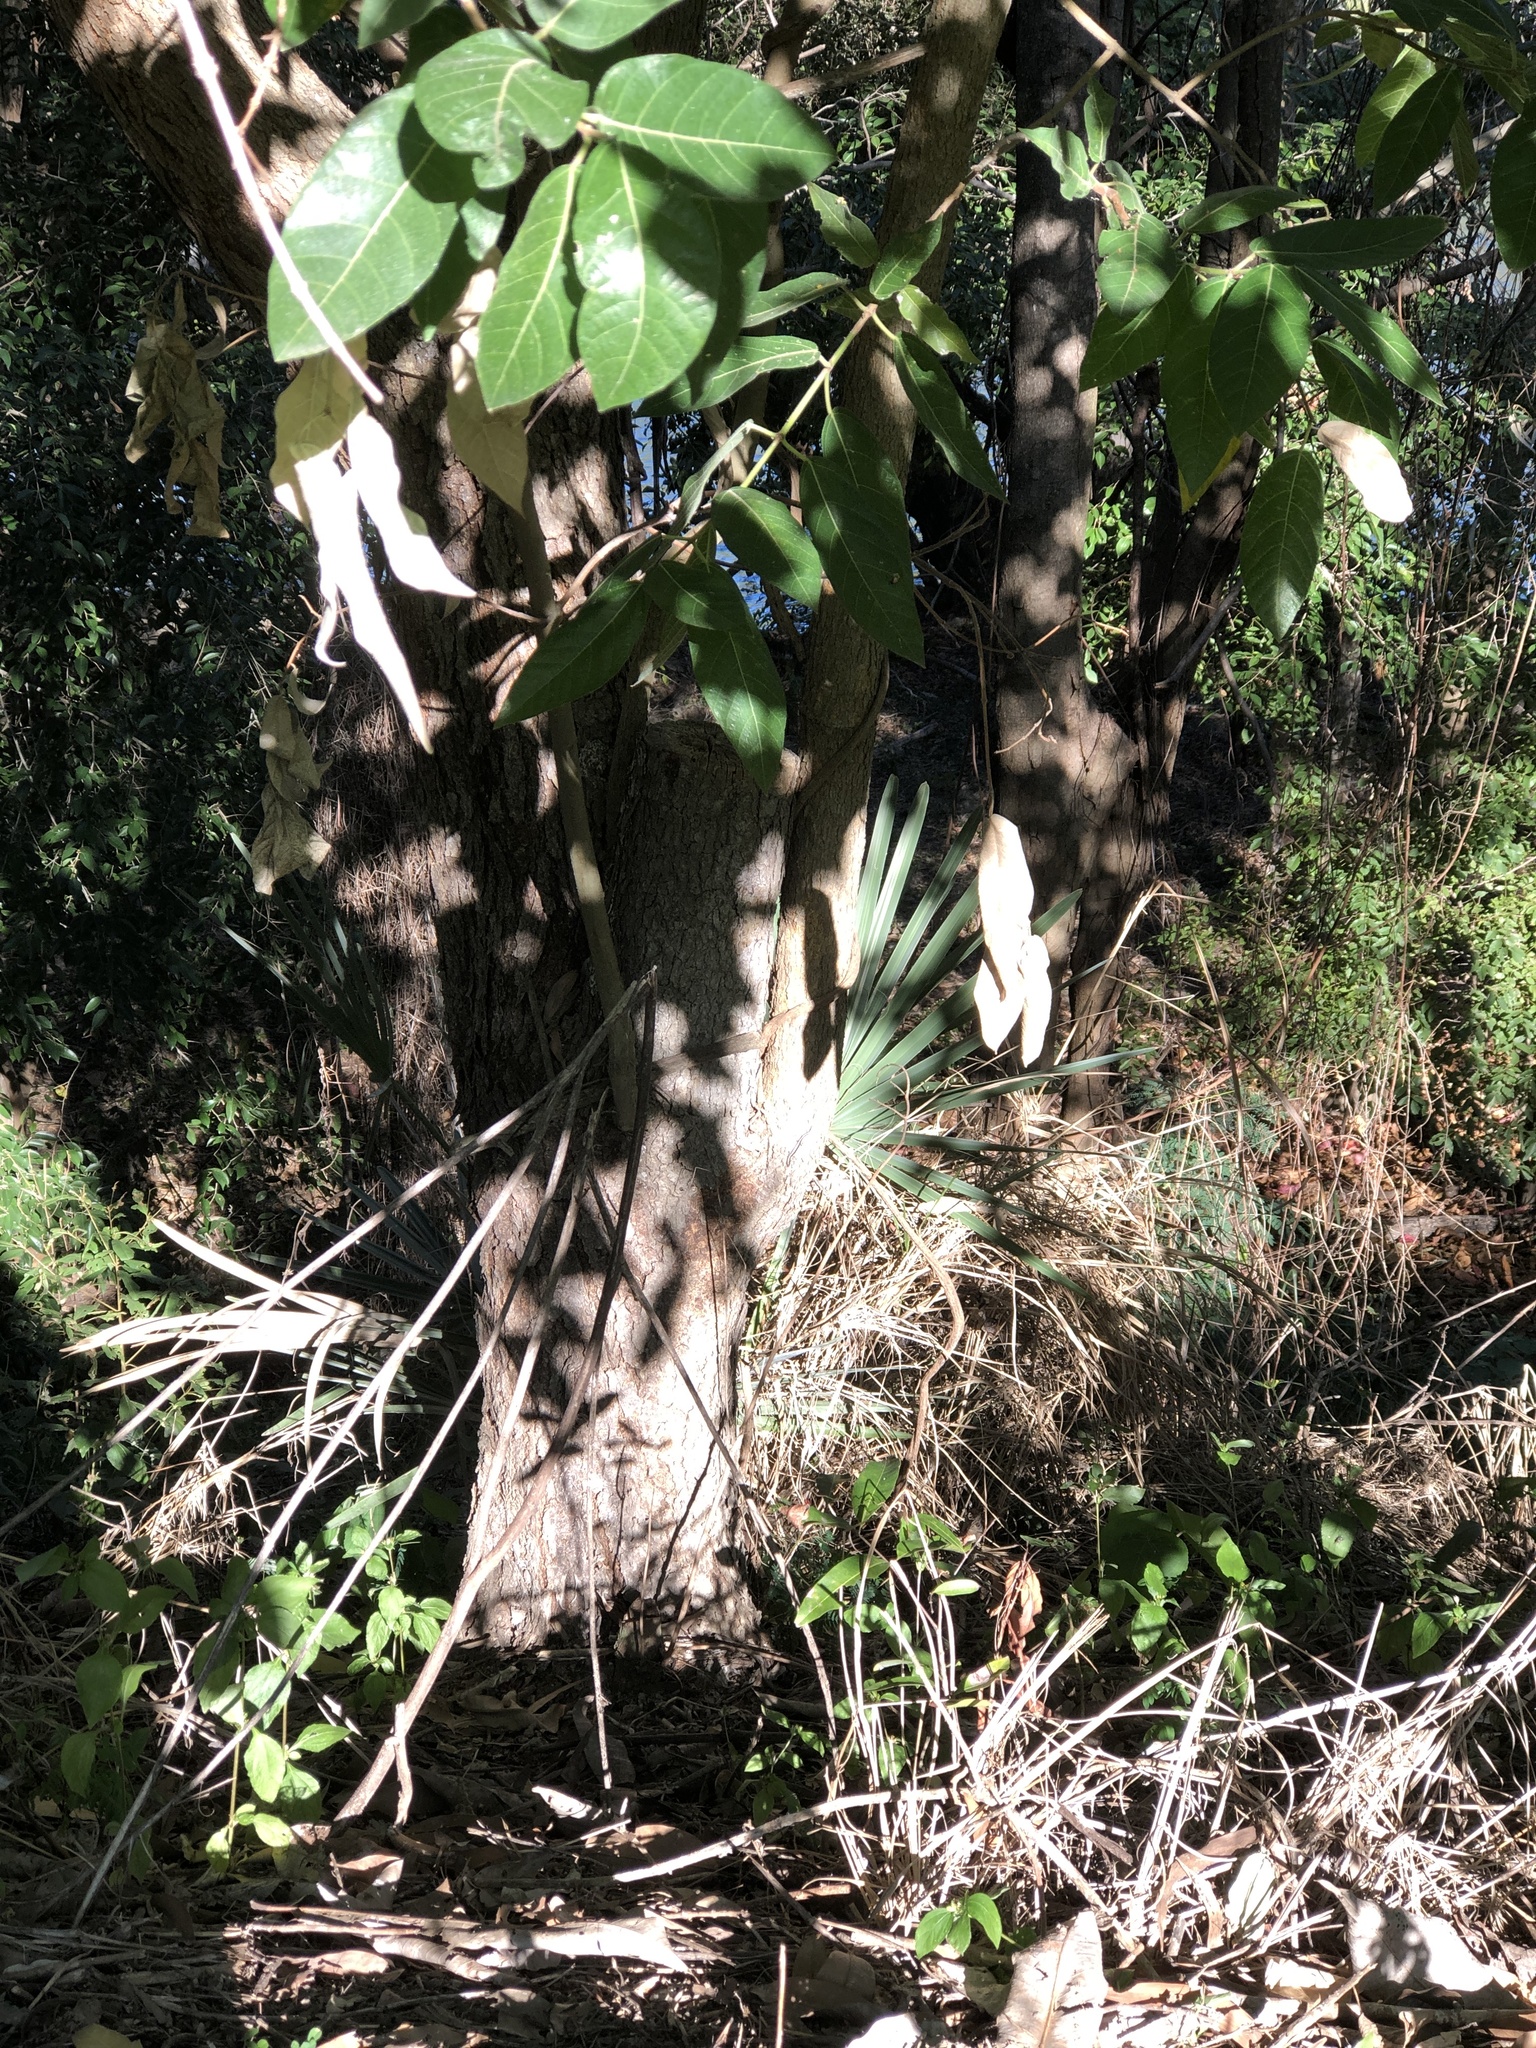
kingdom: Plantae
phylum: Tracheophyta
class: Magnoliopsida
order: Rosales
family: Moraceae
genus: Ficus
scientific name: Ficus opposita
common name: Figwood
